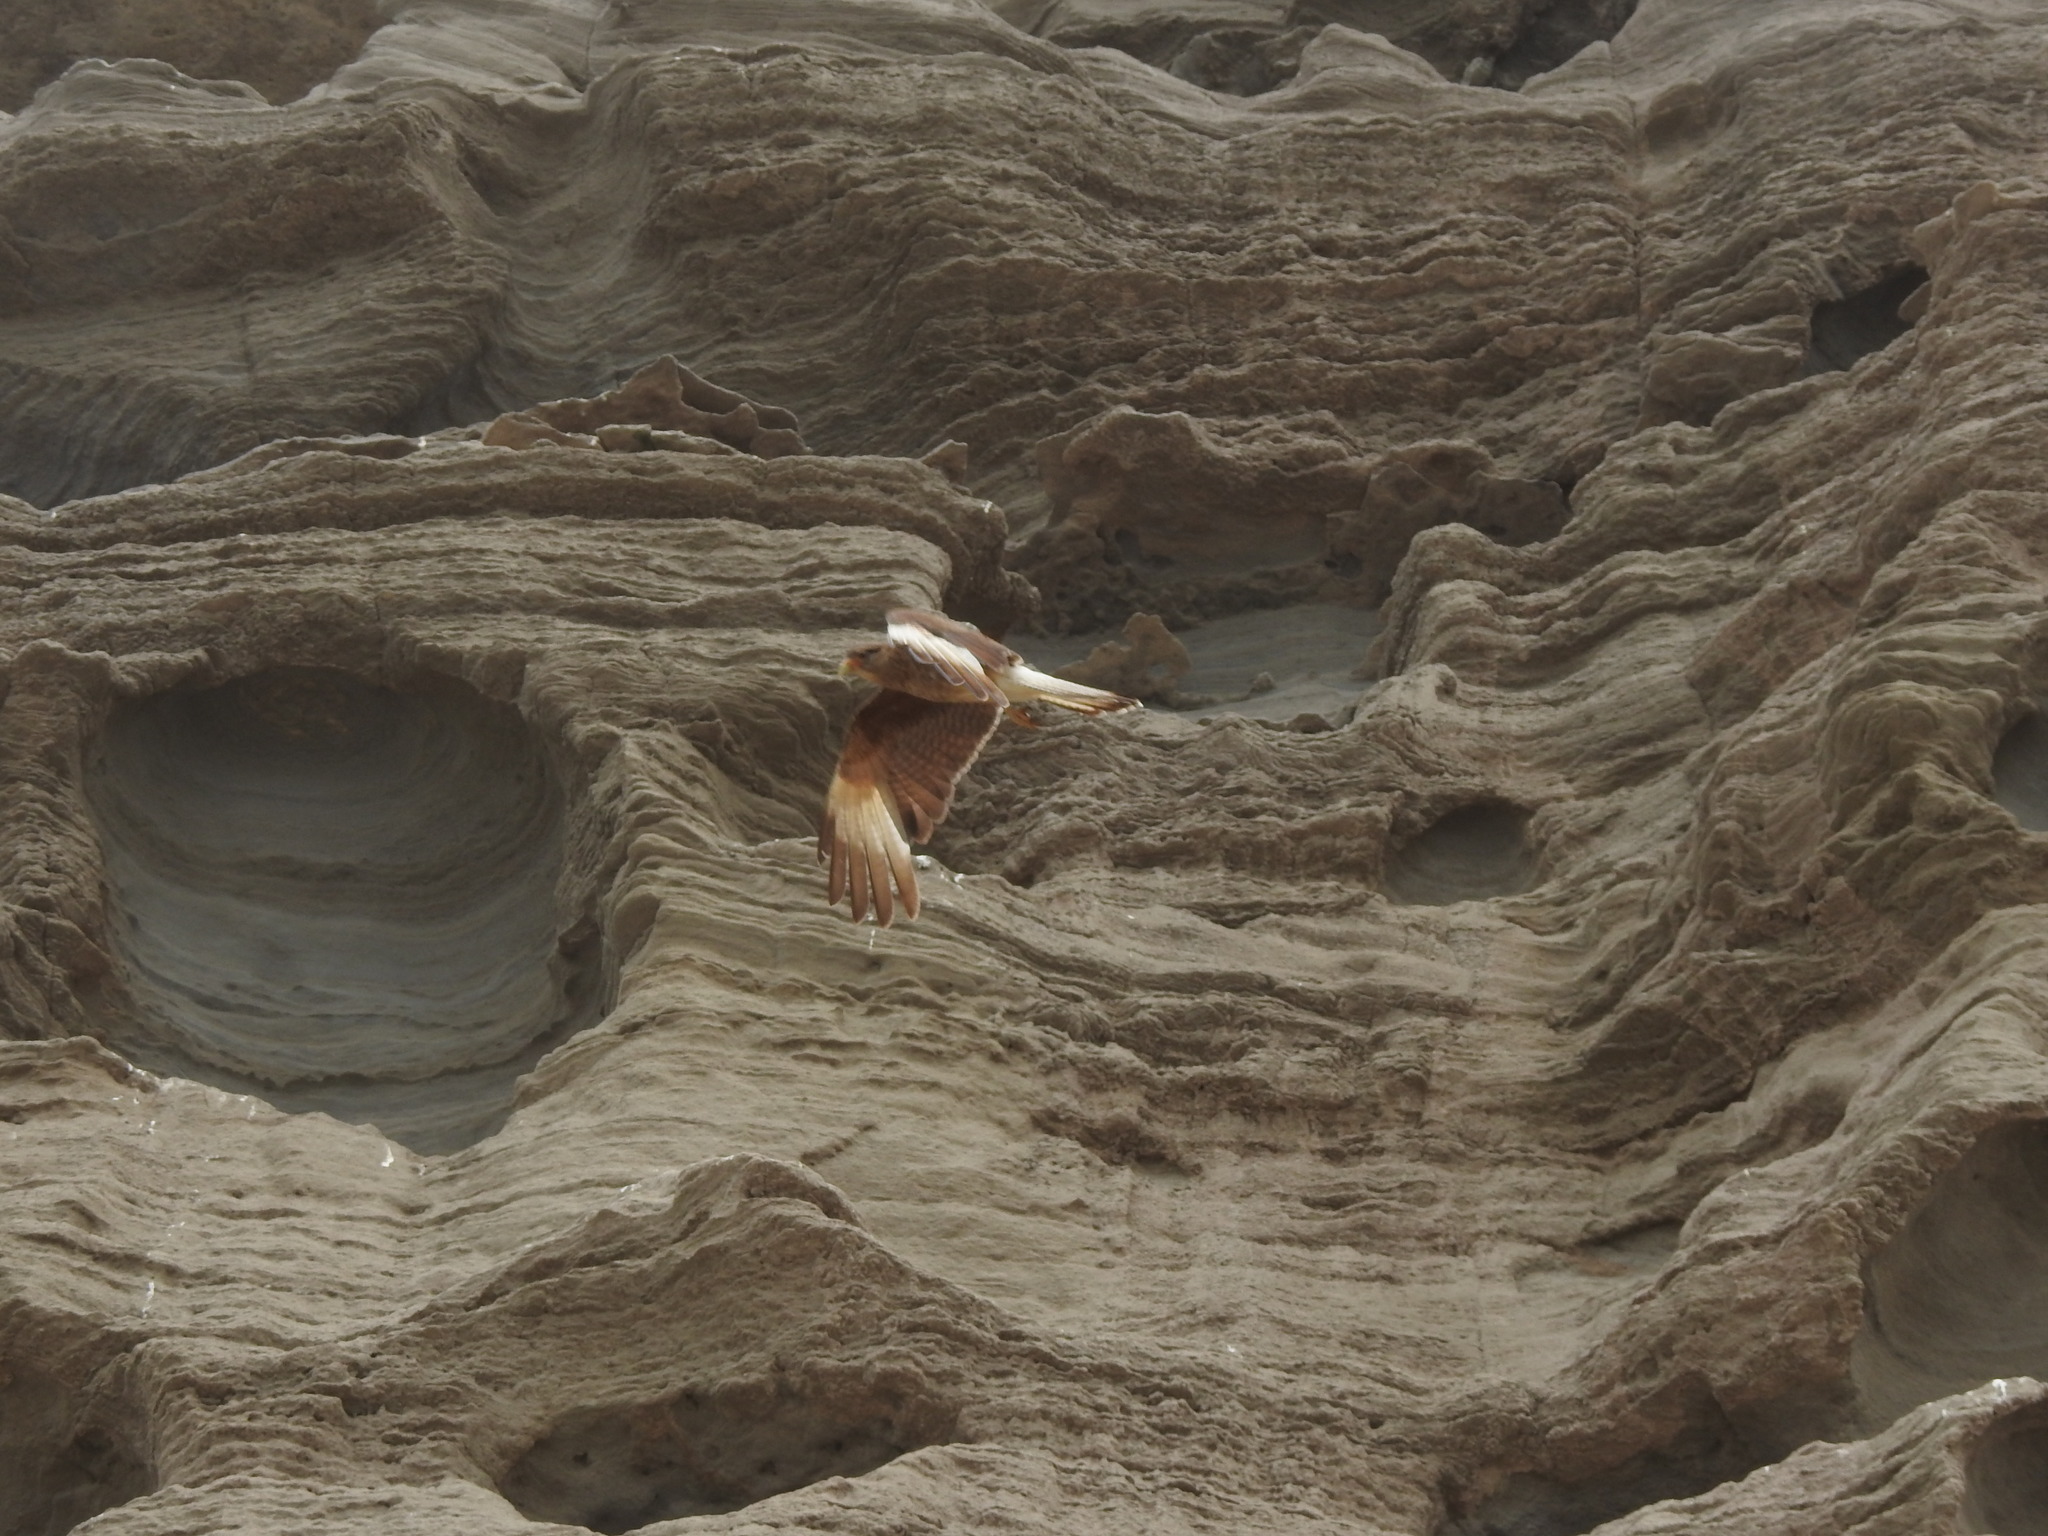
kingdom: Animalia
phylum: Chordata
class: Aves
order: Falconiformes
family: Falconidae
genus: Daptrius
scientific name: Daptrius
